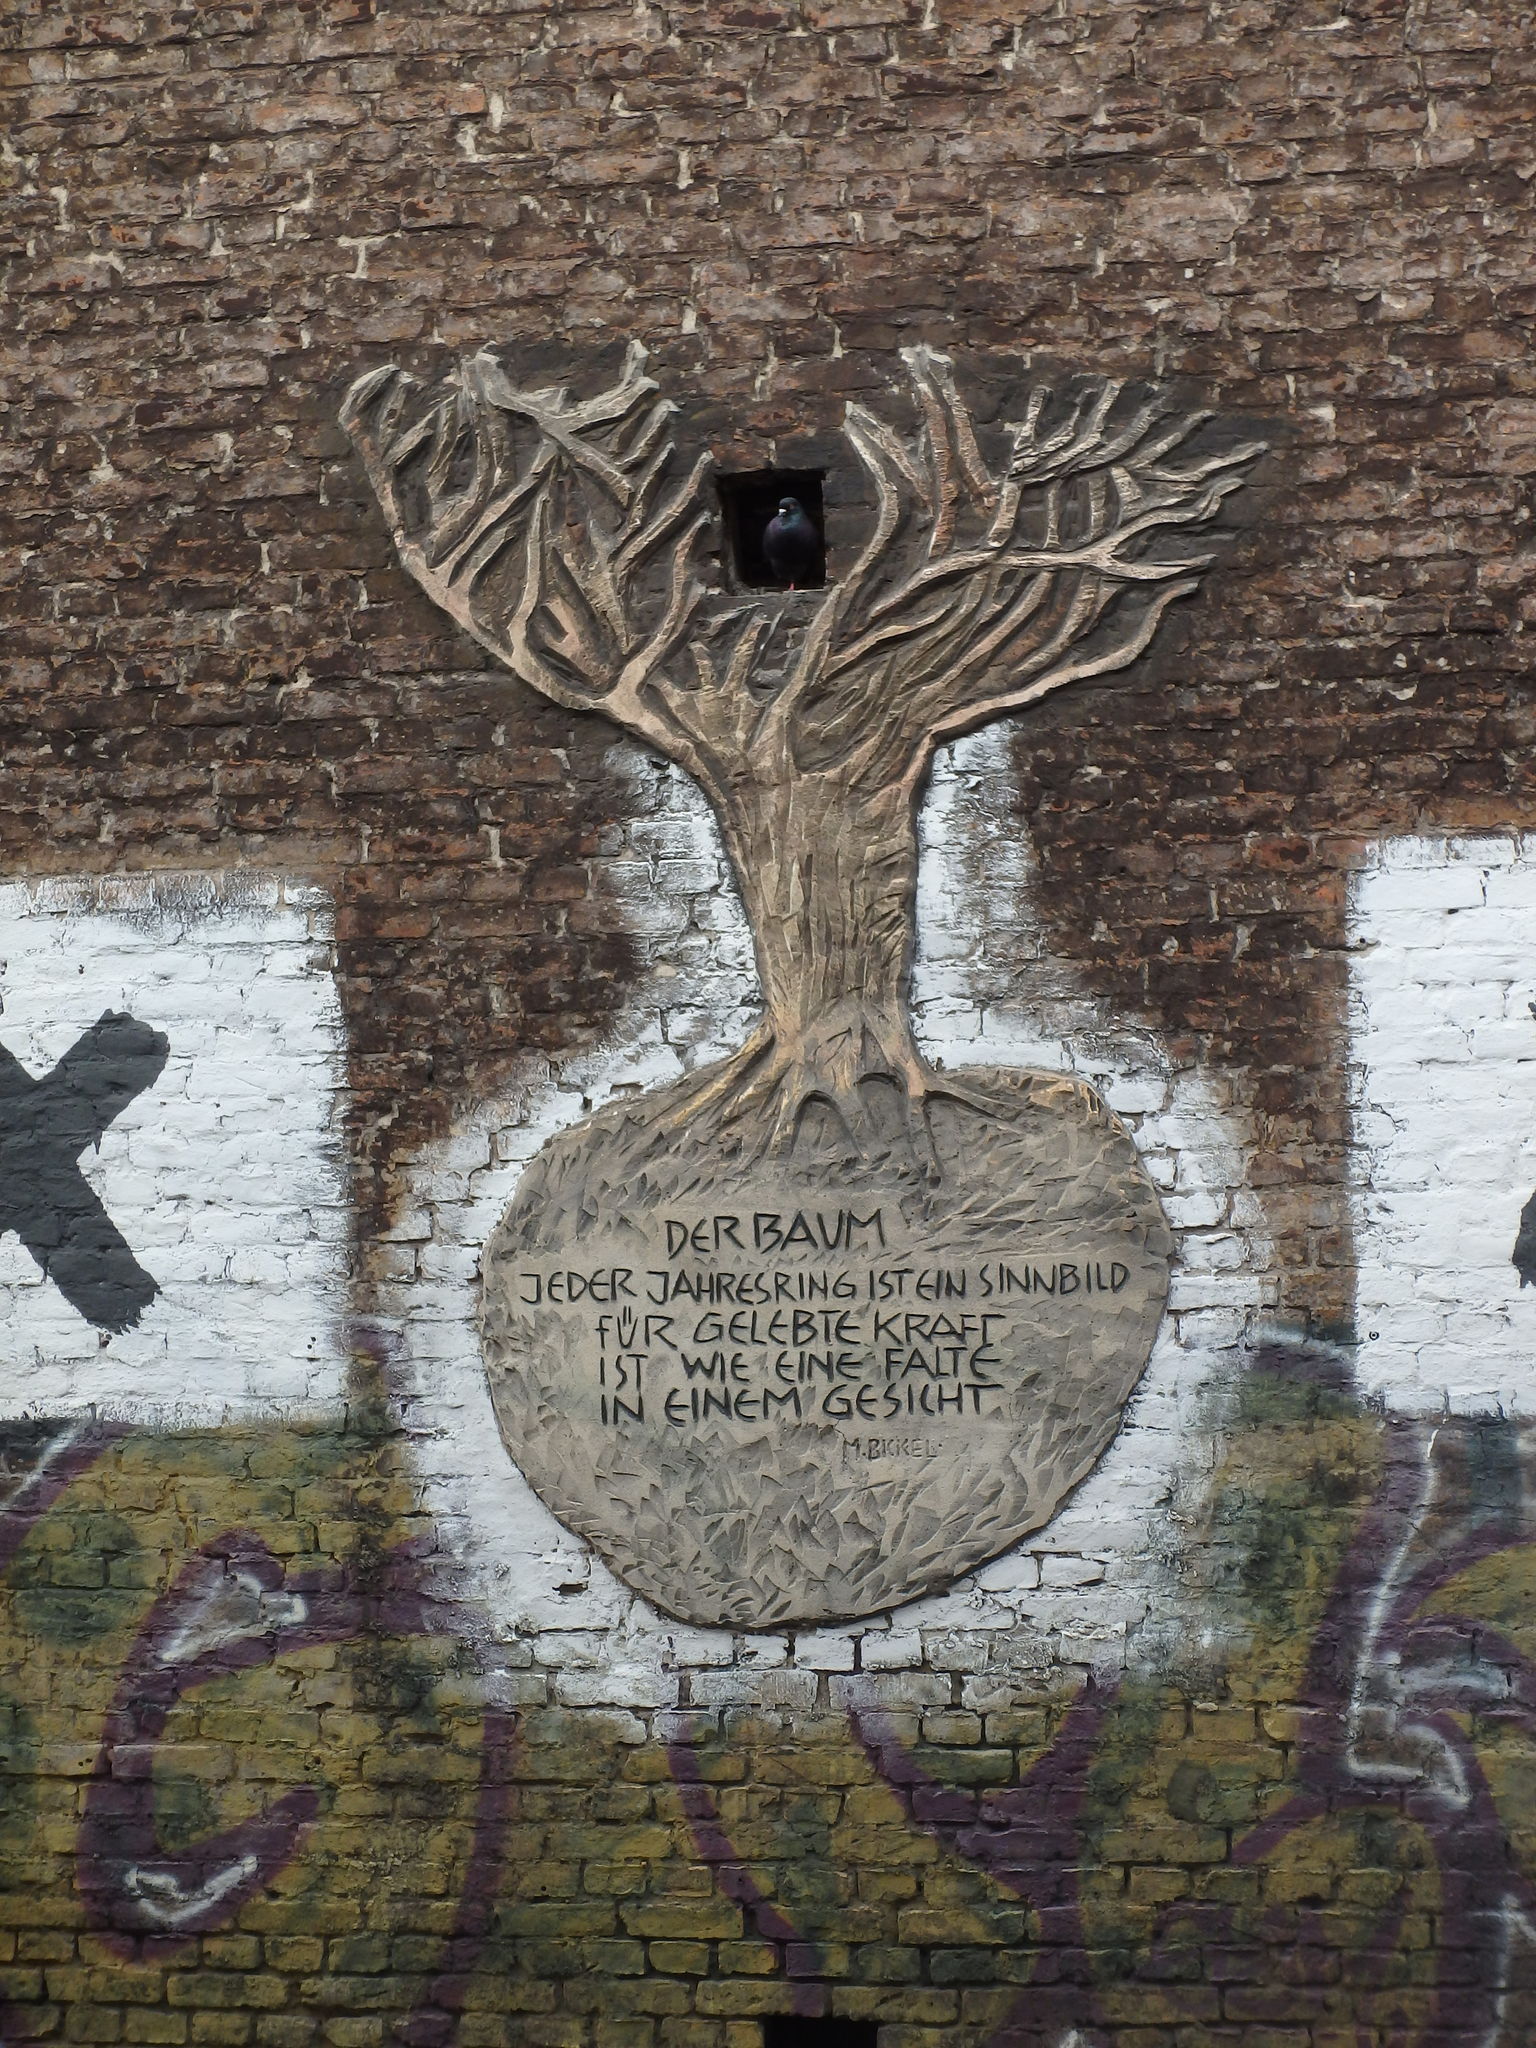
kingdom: Animalia
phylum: Chordata
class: Aves
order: Columbiformes
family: Columbidae
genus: Columba
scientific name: Columba livia
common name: Rock pigeon
